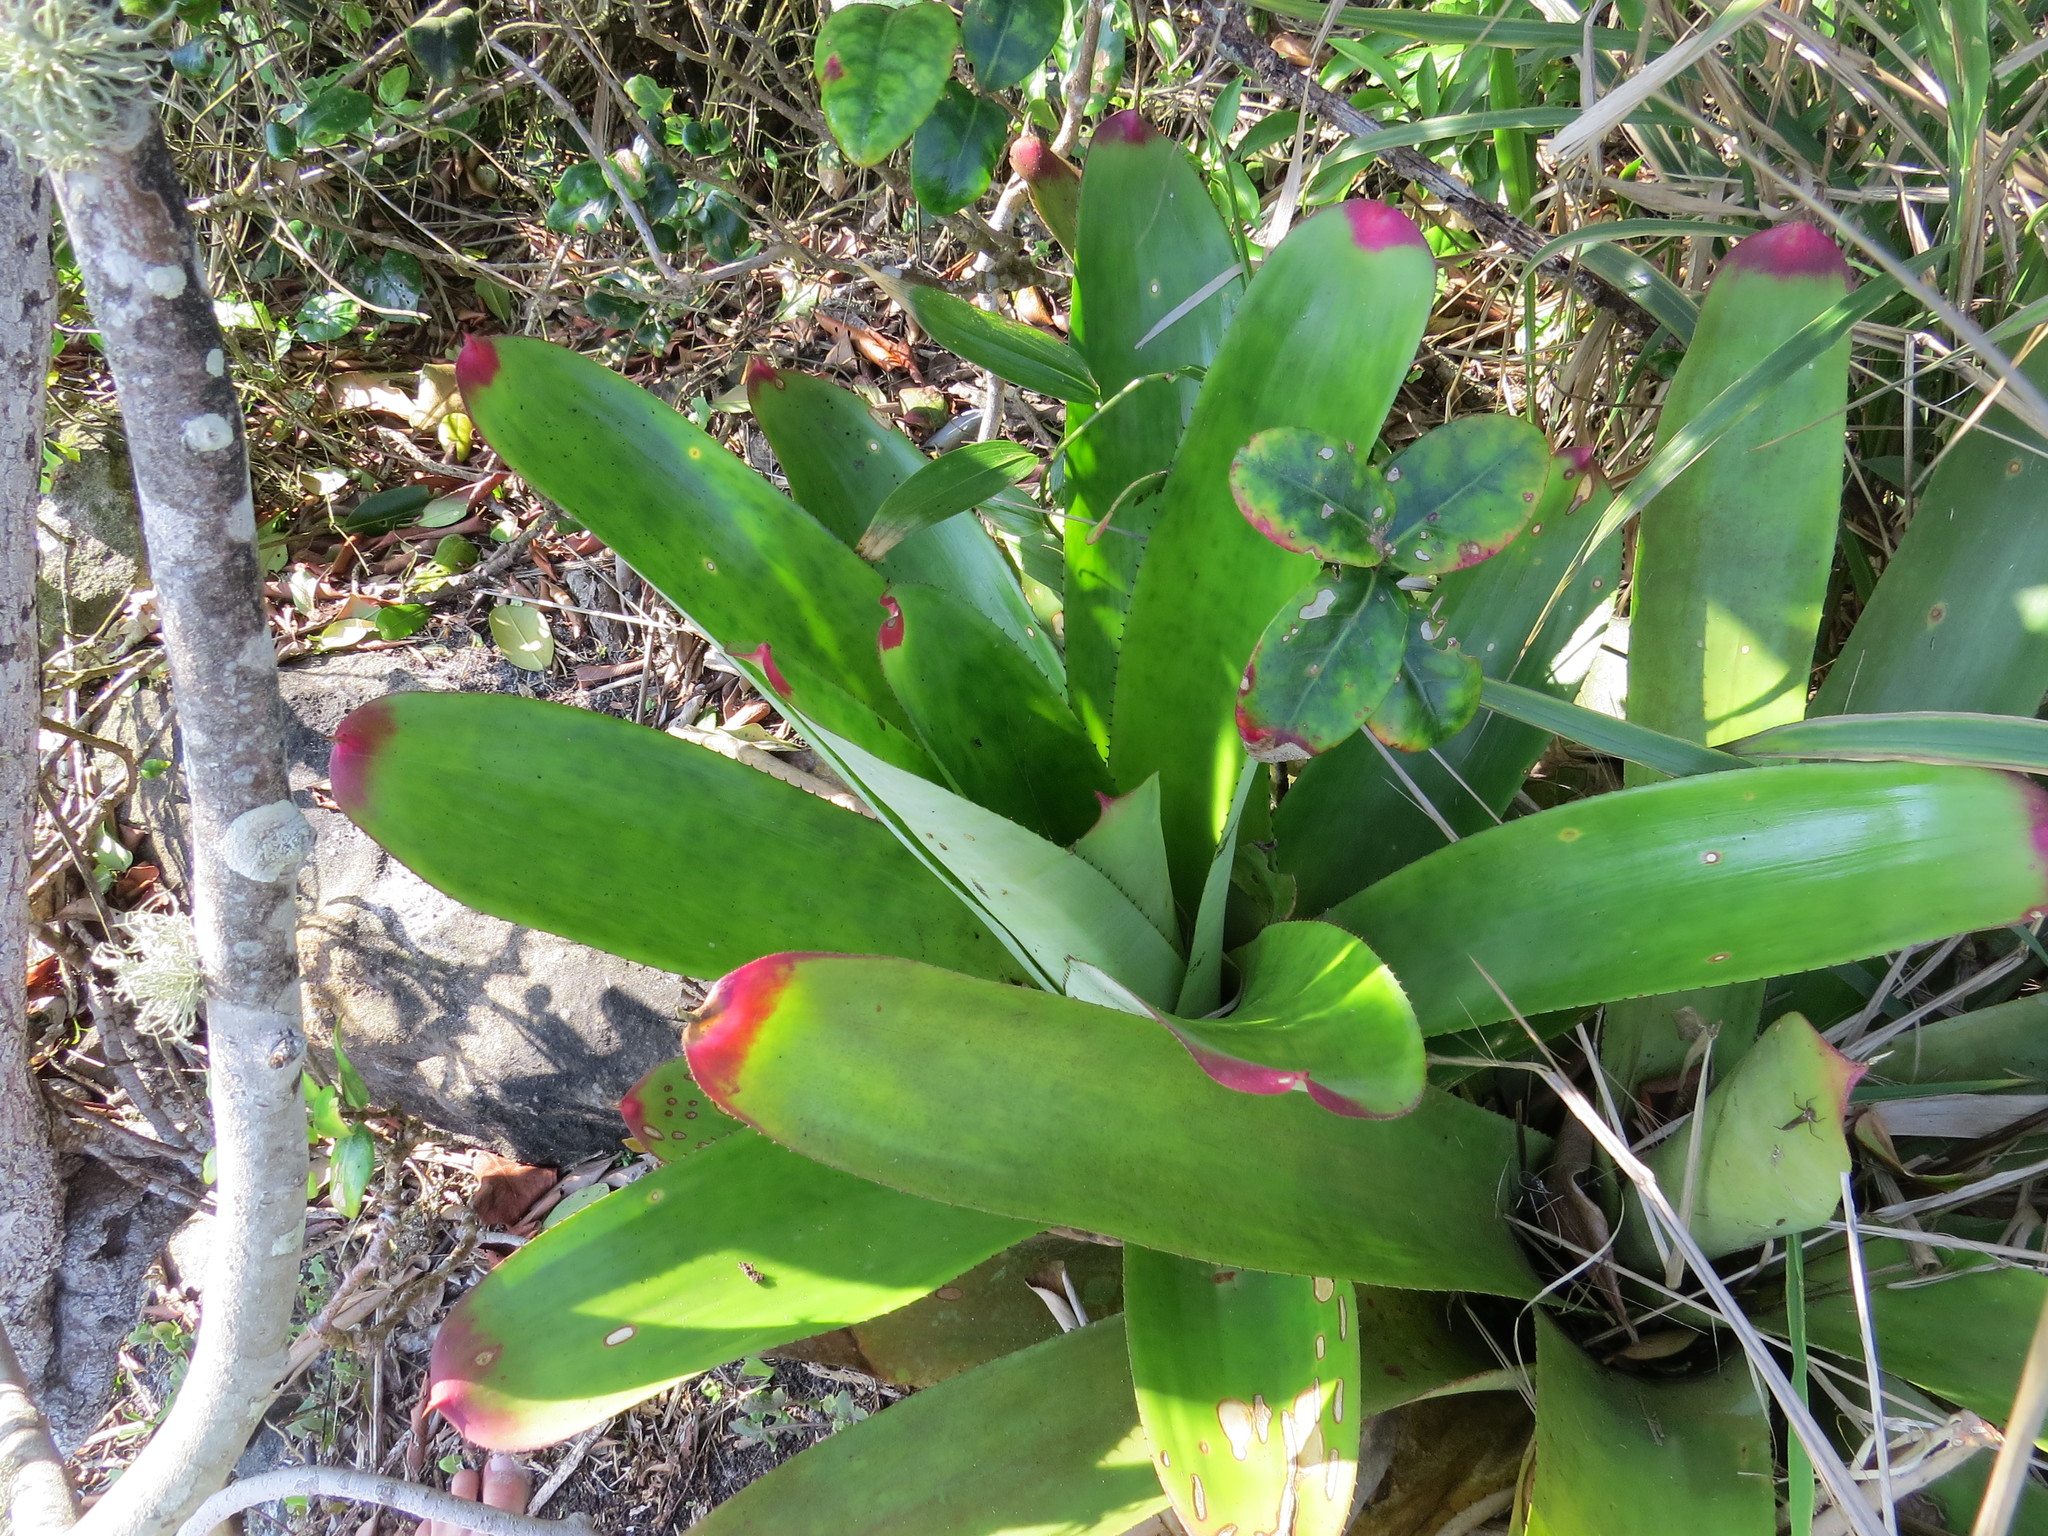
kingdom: Plantae
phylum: Tracheophyta
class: Liliopsida
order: Poales
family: Bromeliaceae
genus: Neoregelia
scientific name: Neoregelia cruenta
